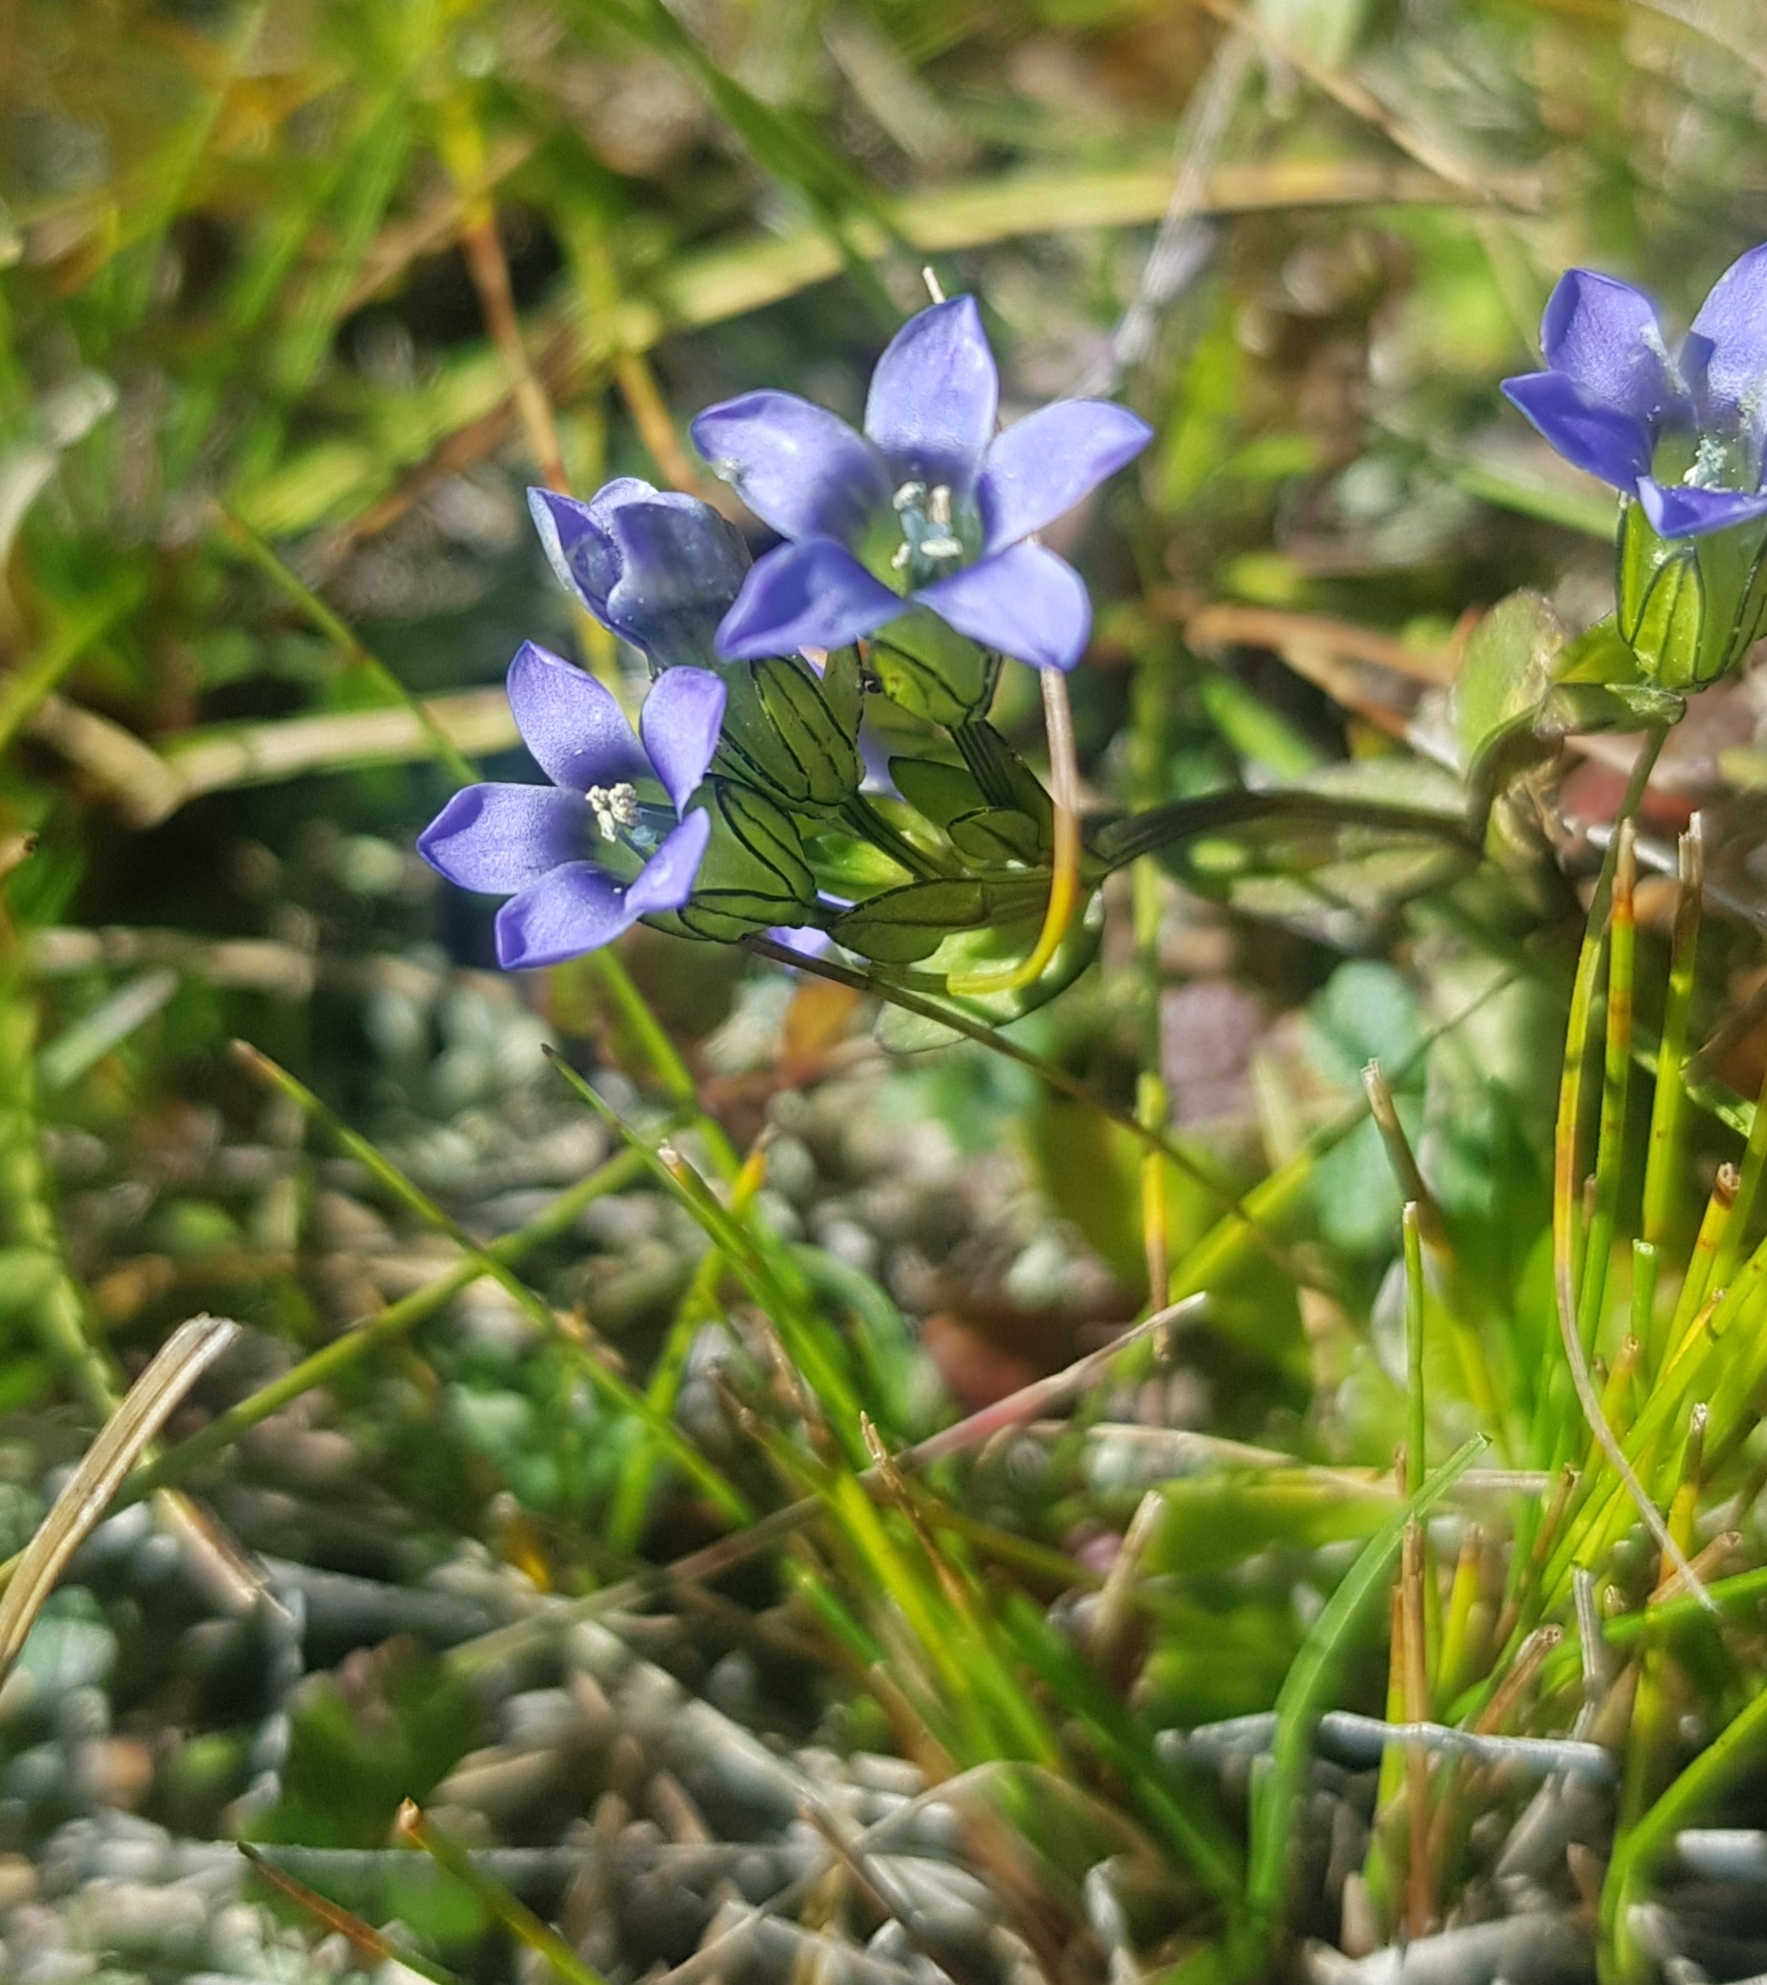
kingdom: Plantae
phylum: Tracheophyta
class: Magnoliopsida
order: Gentianales
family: Gentianaceae
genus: Comastoma
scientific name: Comastoma tenellum
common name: Dane's dwarf gentian
